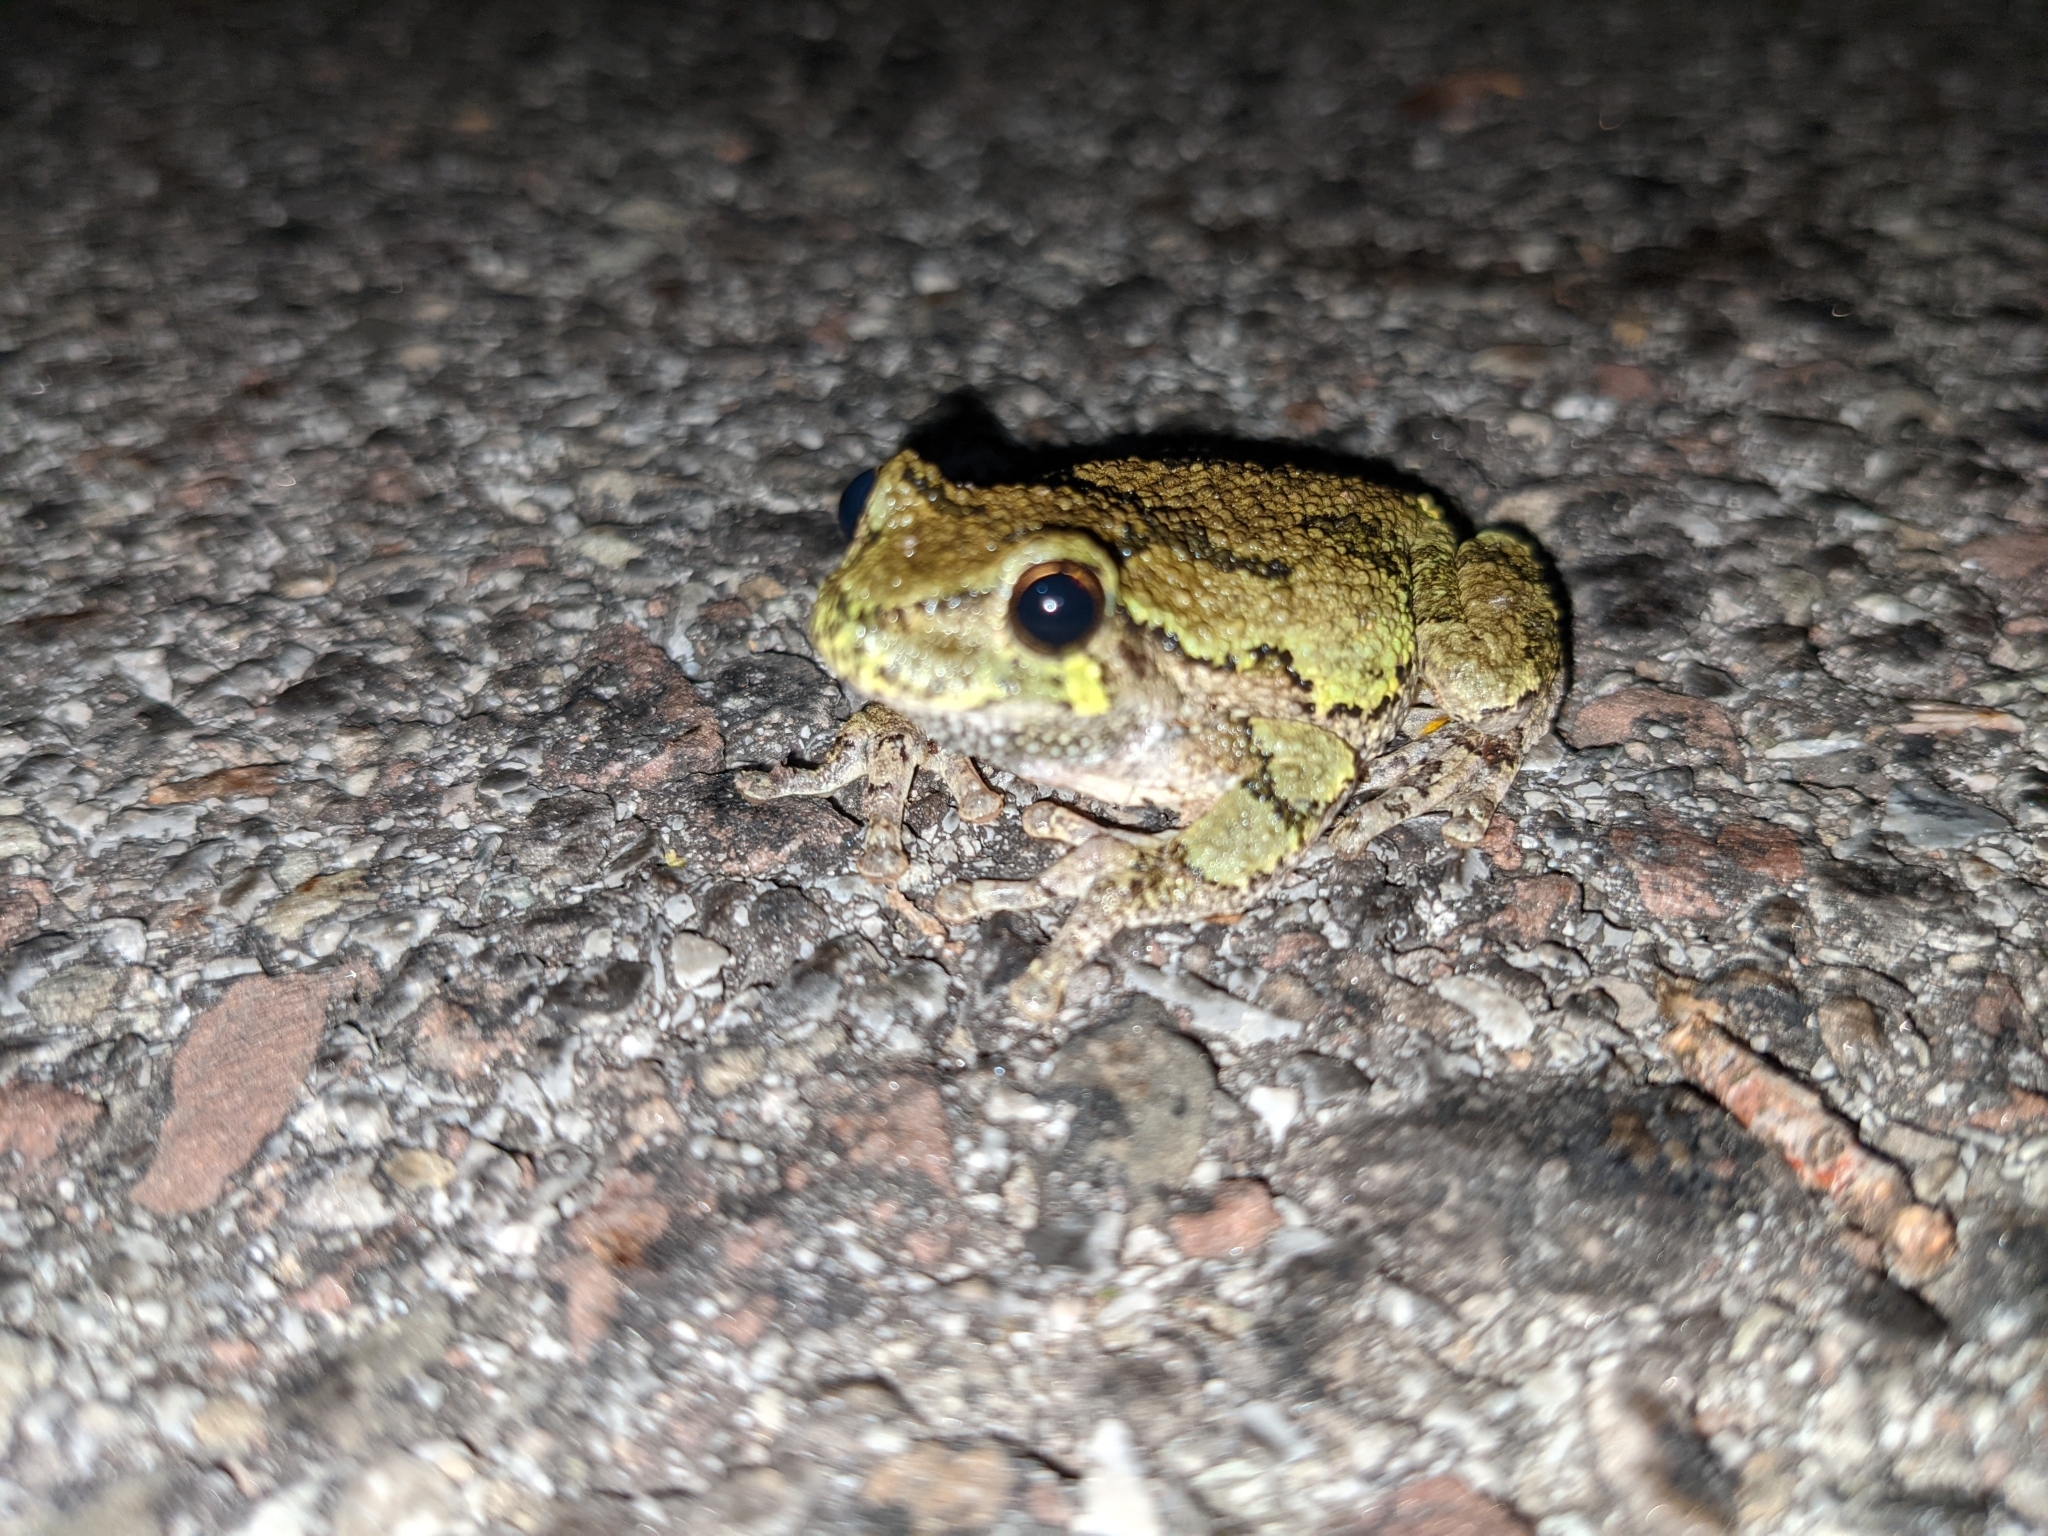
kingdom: Animalia
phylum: Chordata
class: Amphibia
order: Anura
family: Hylidae
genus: Dryophytes
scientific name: Dryophytes versicolor
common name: Gray treefrog
